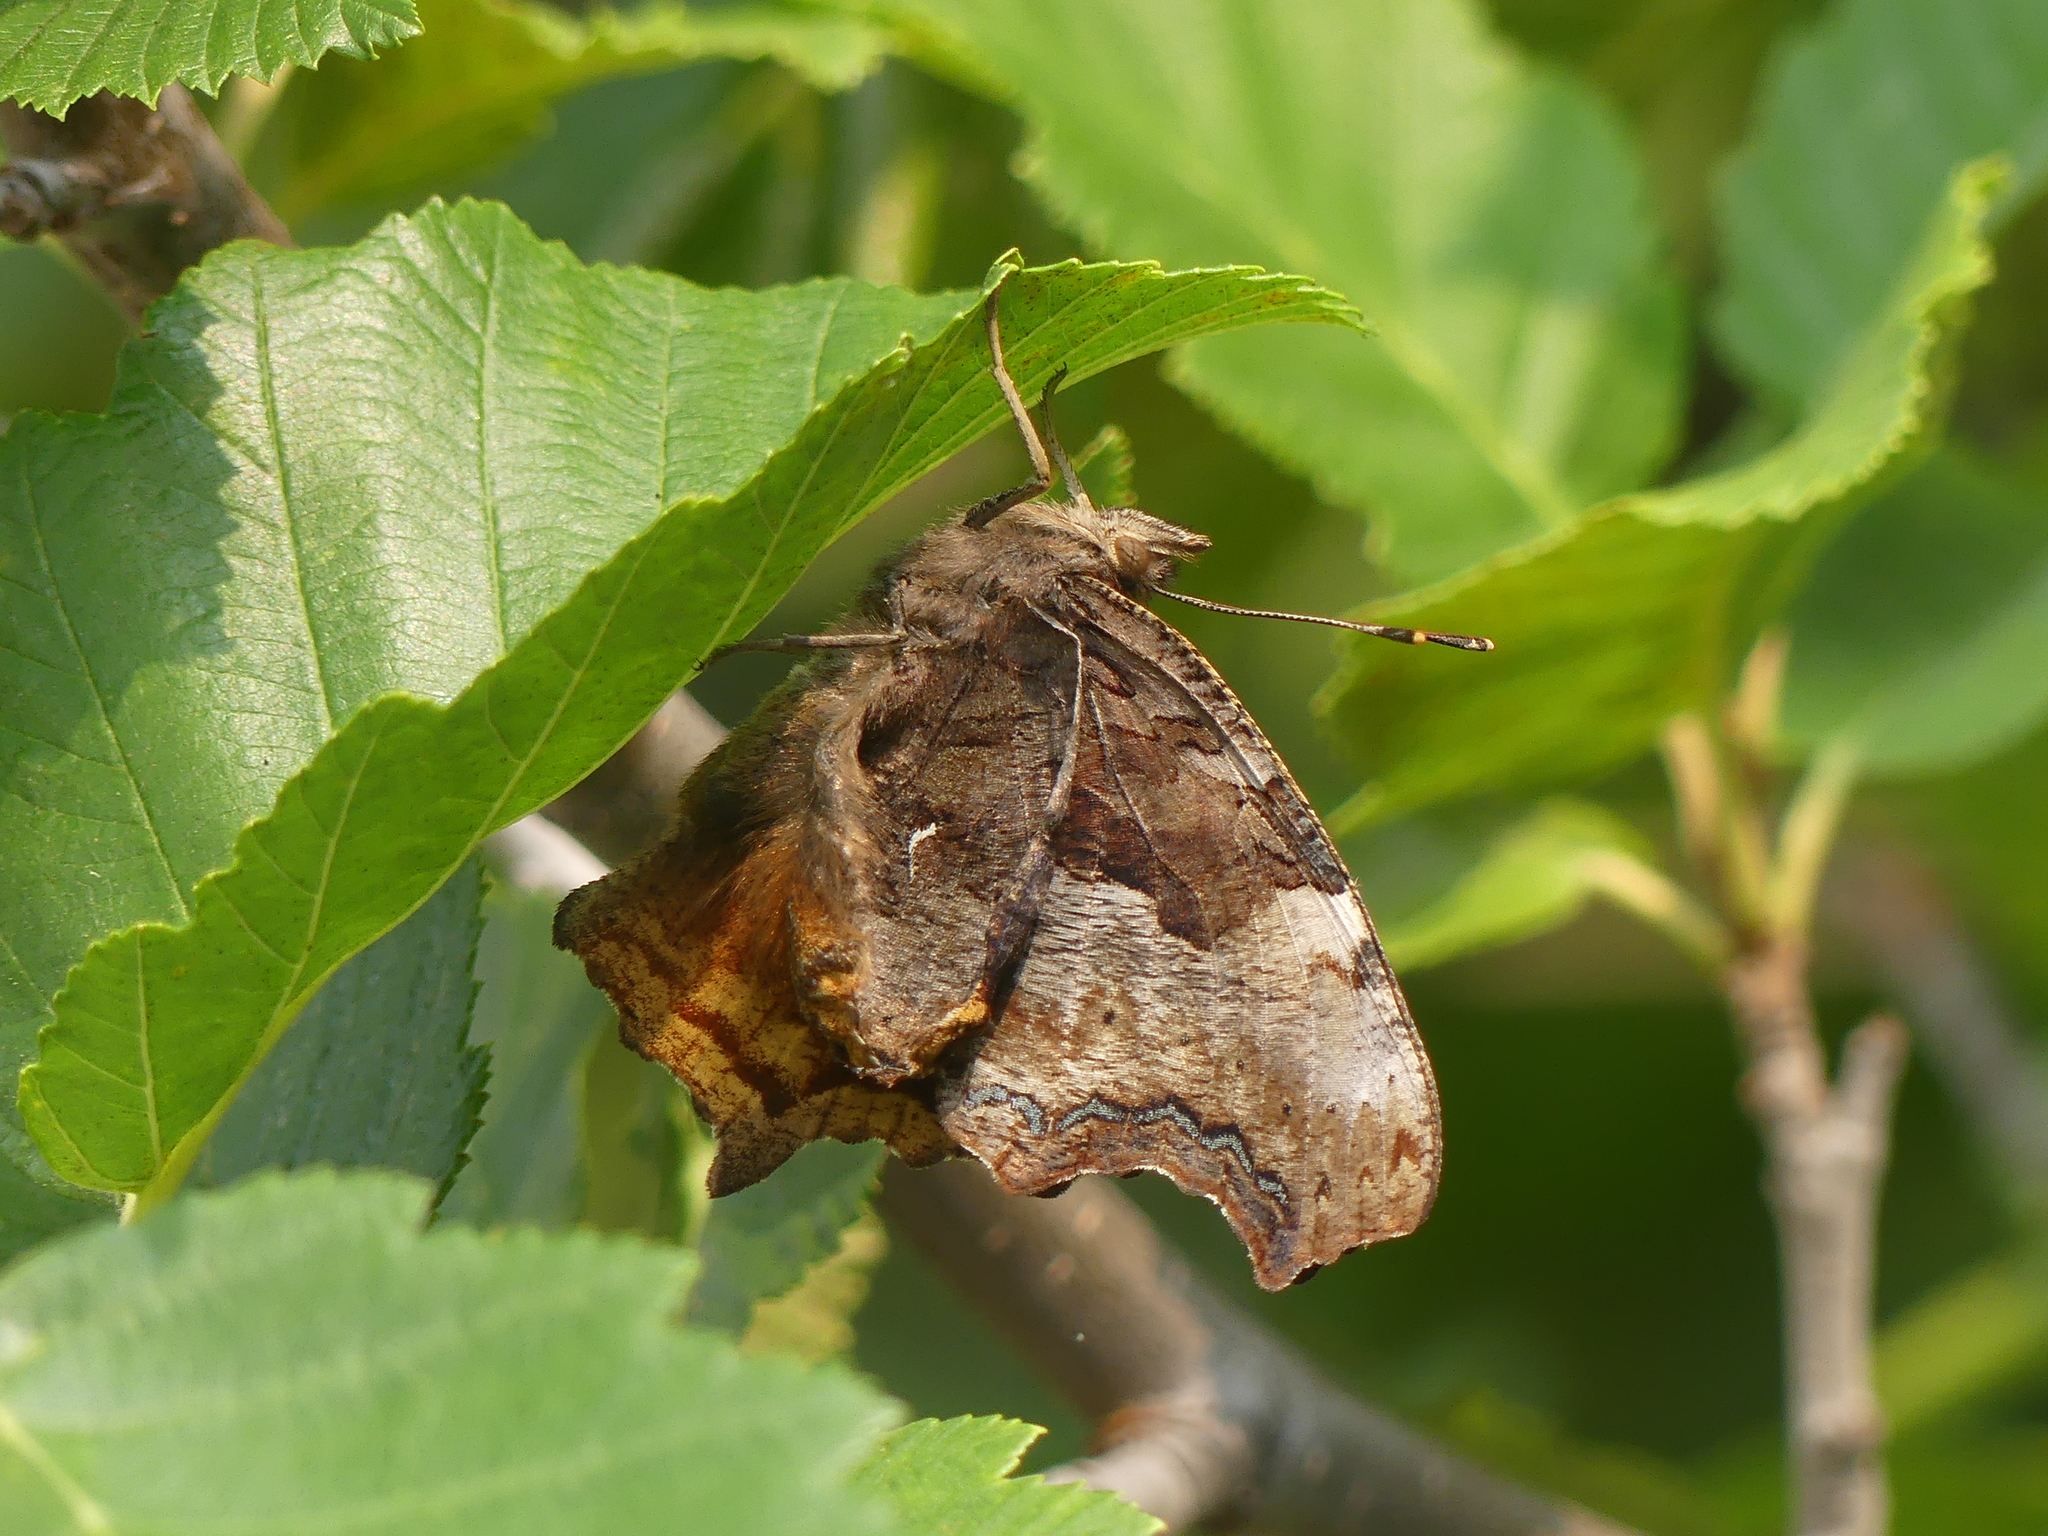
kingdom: Animalia
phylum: Arthropoda
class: Insecta
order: Lepidoptera
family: Nymphalidae
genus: Polygonia
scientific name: Polygonia vaualbum
